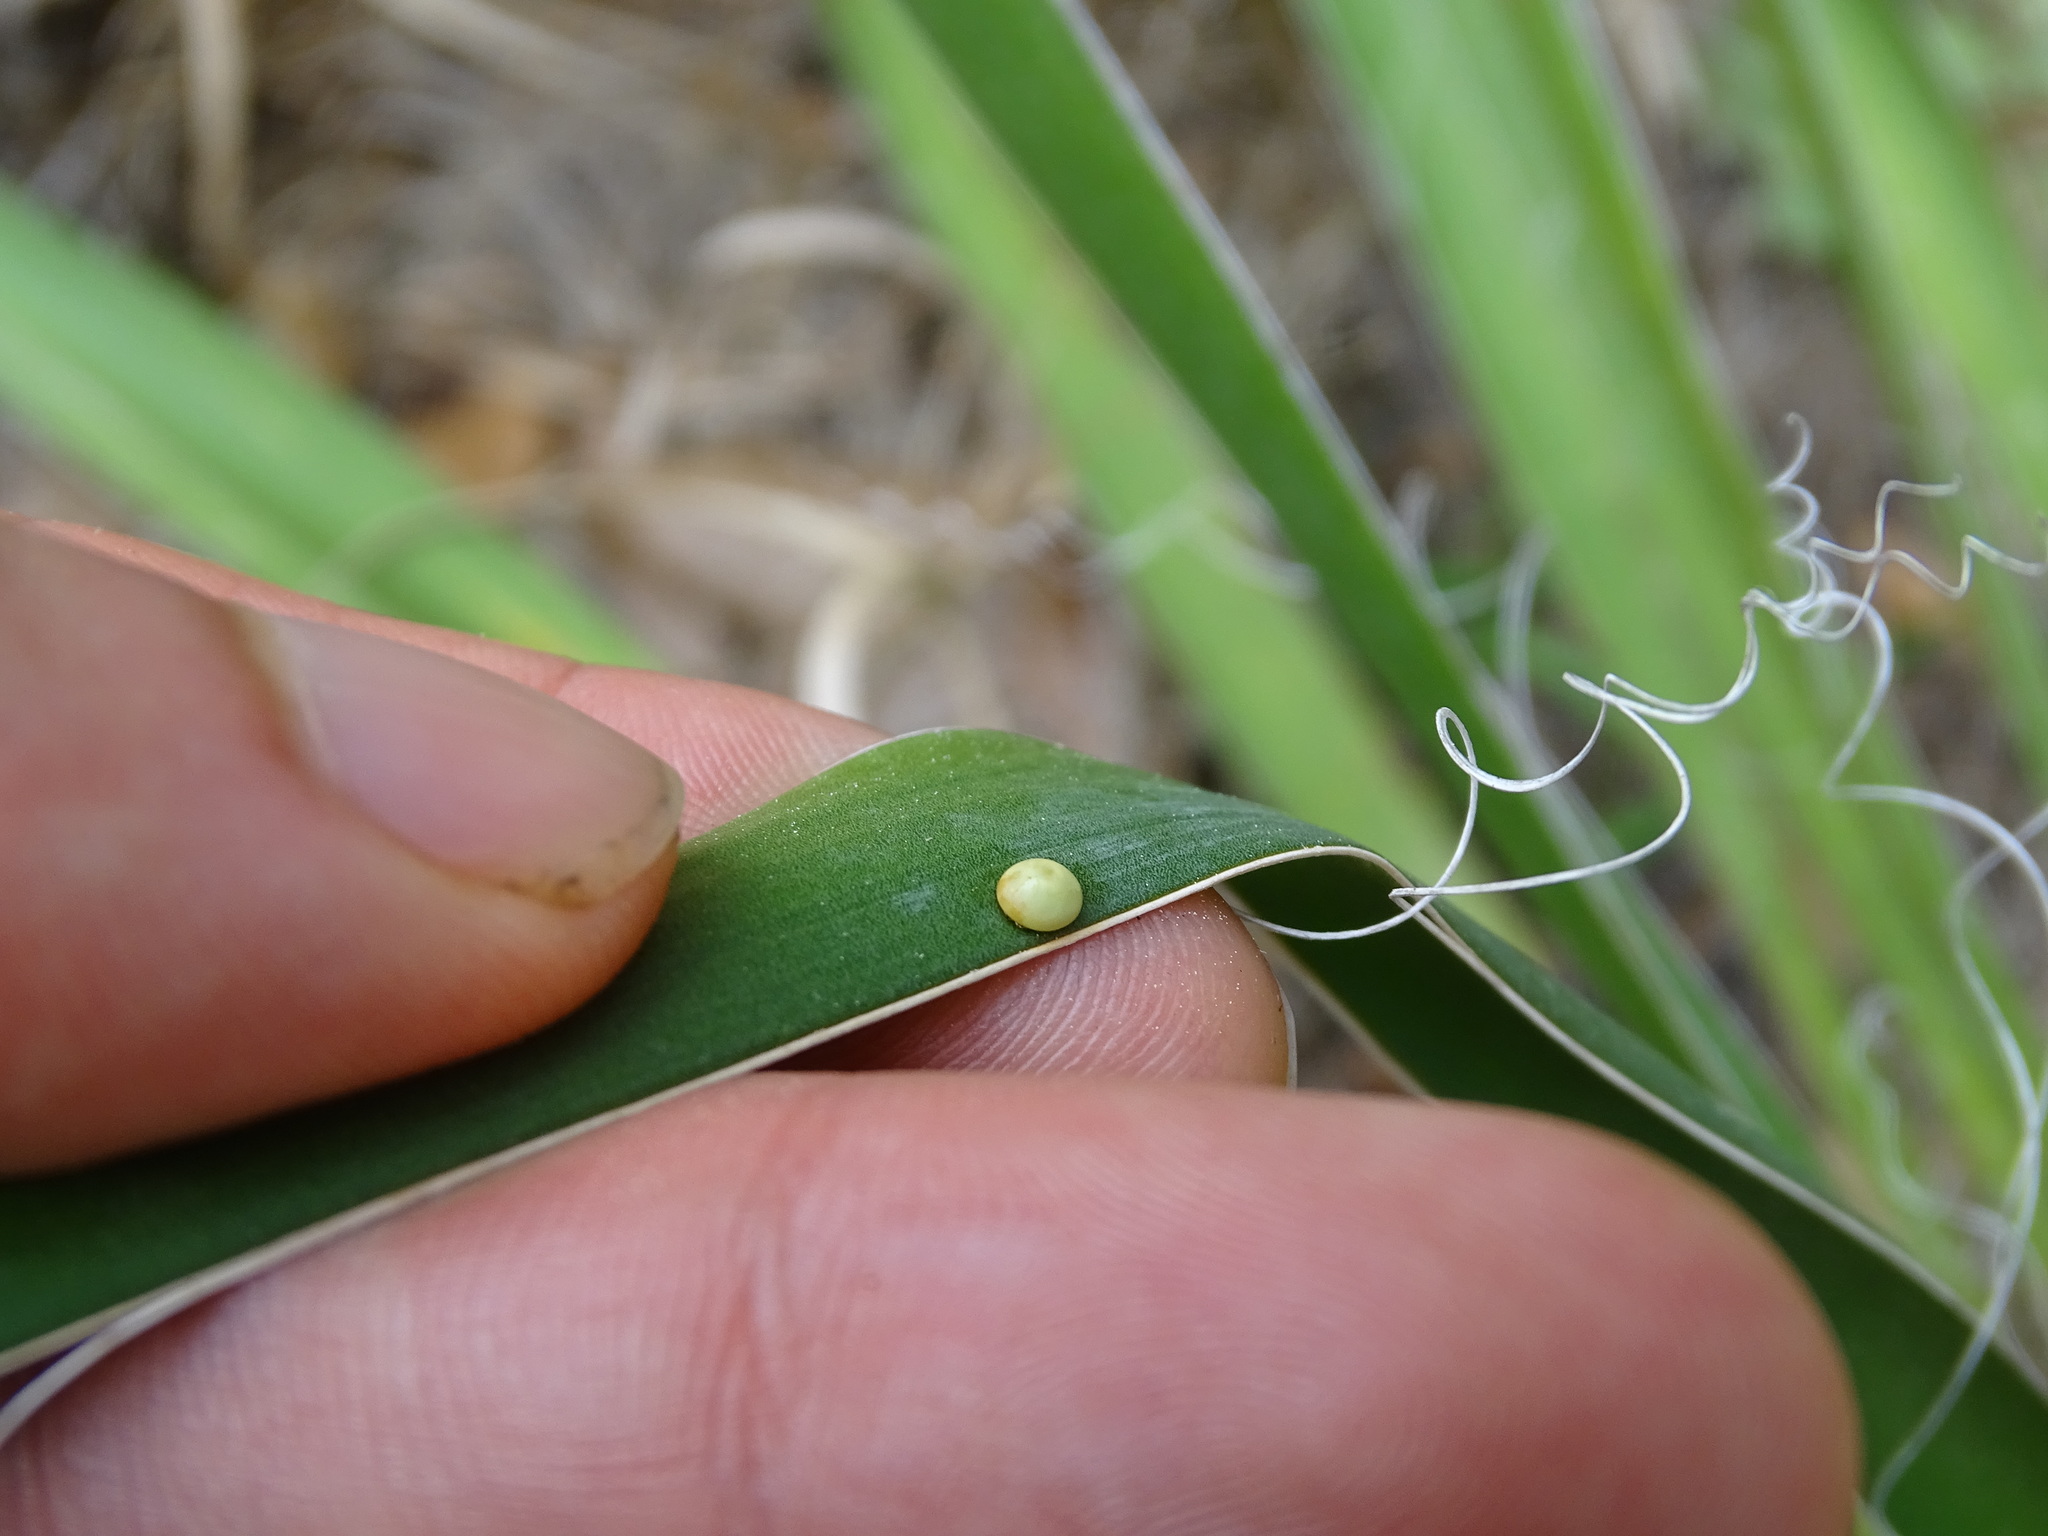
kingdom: Animalia
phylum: Arthropoda
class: Insecta
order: Lepidoptera
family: Hesperiidae
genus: Megathymus
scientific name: Megathymus yuccae
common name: Yucca giant-skipper
